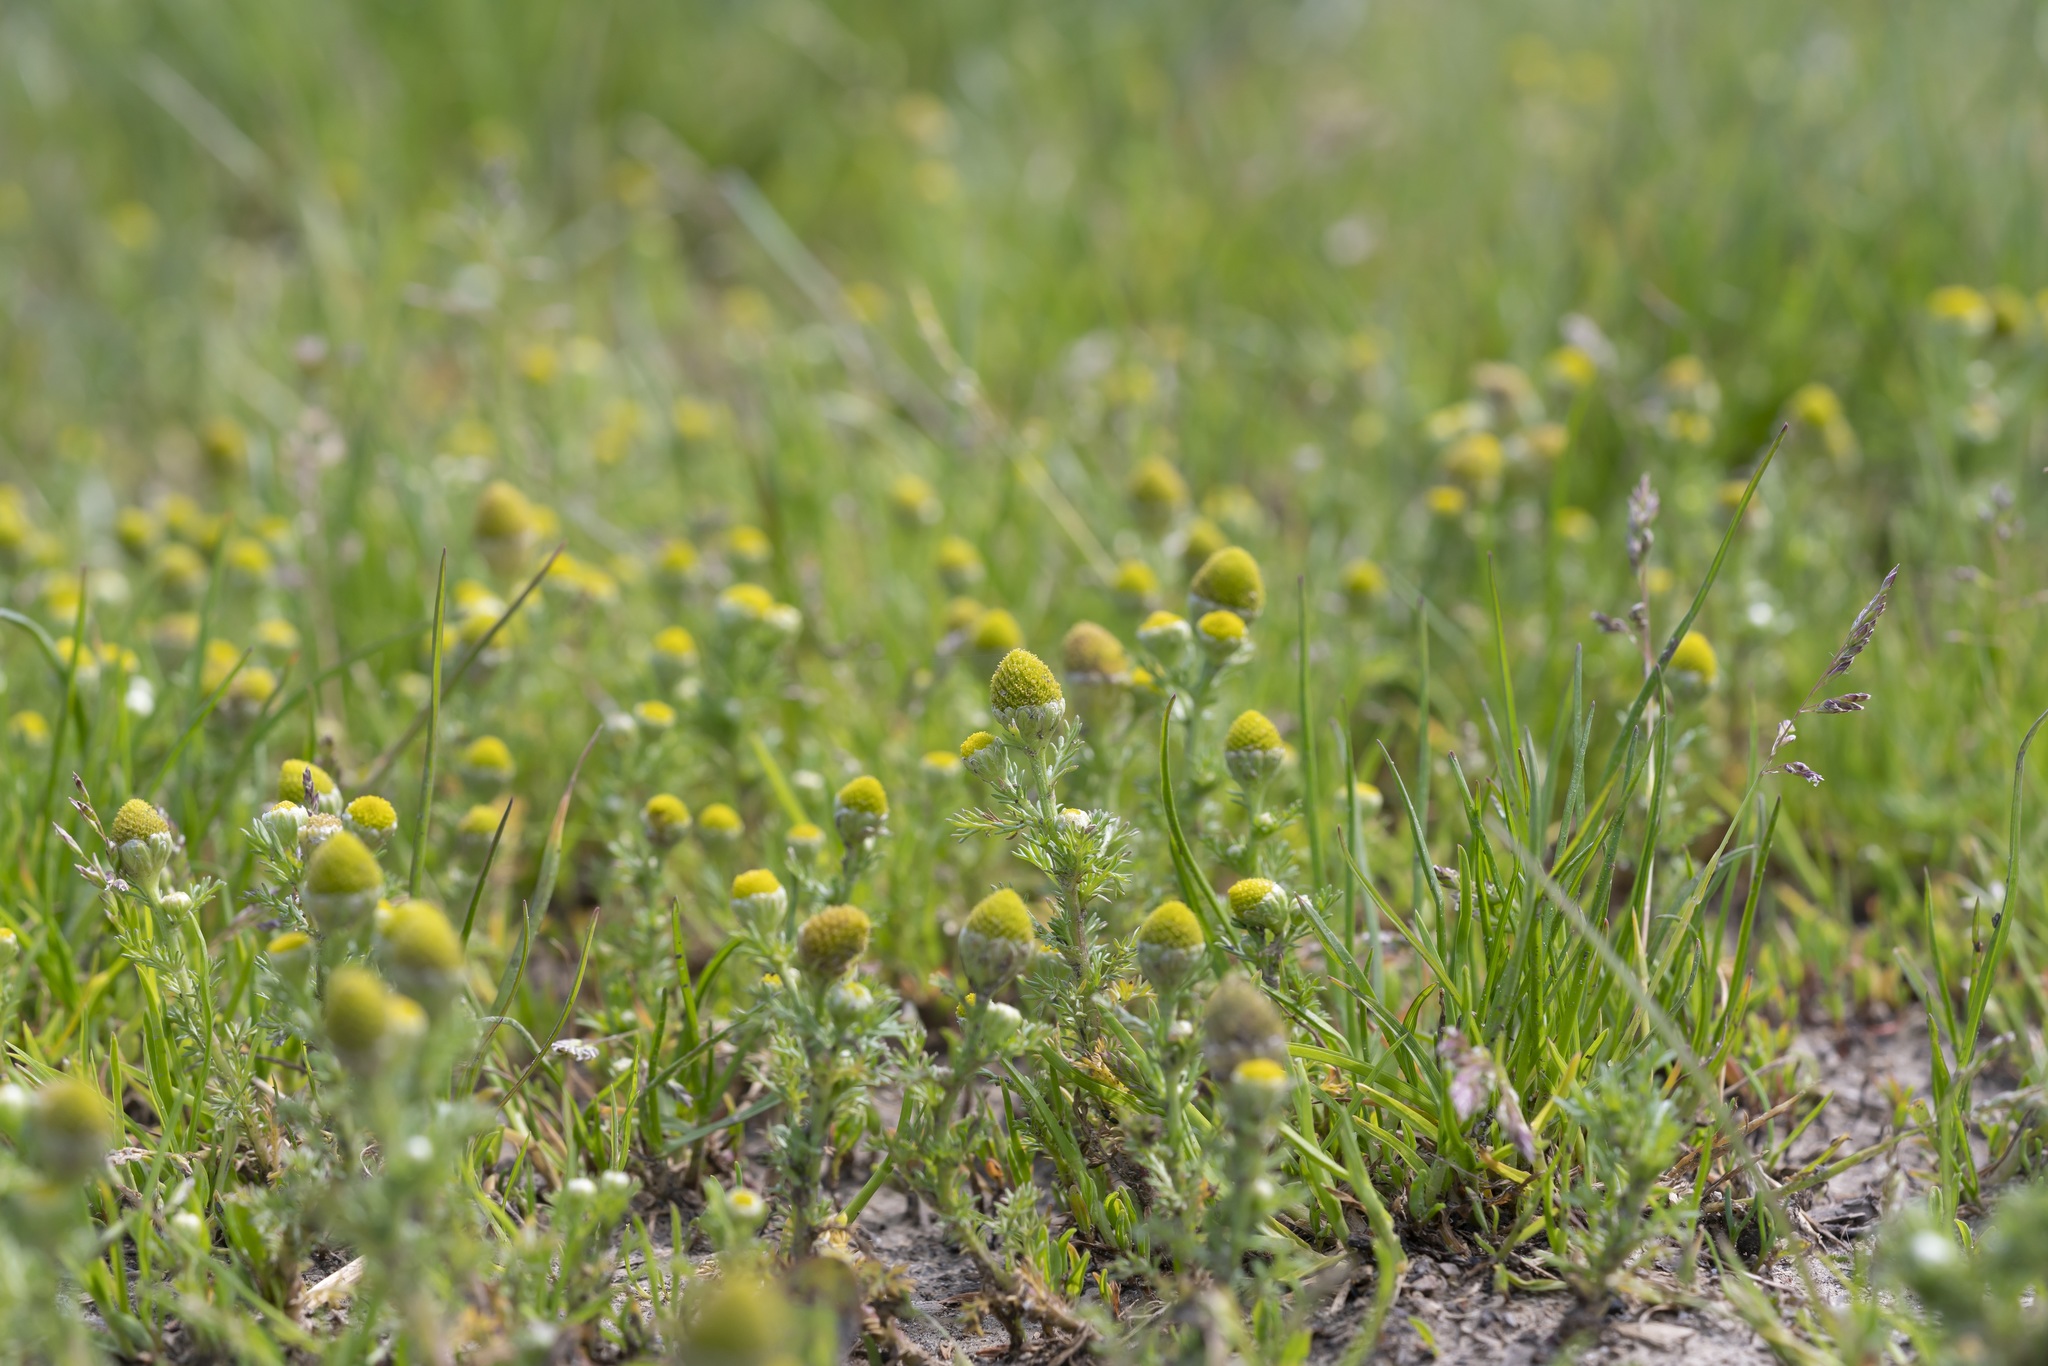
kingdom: Plantae
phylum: Tracheophyta
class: Magnoliopsida
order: Asterales
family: Asteraceae
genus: Matricaria
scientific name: Matricaria discoidea
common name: Disc mayweed
